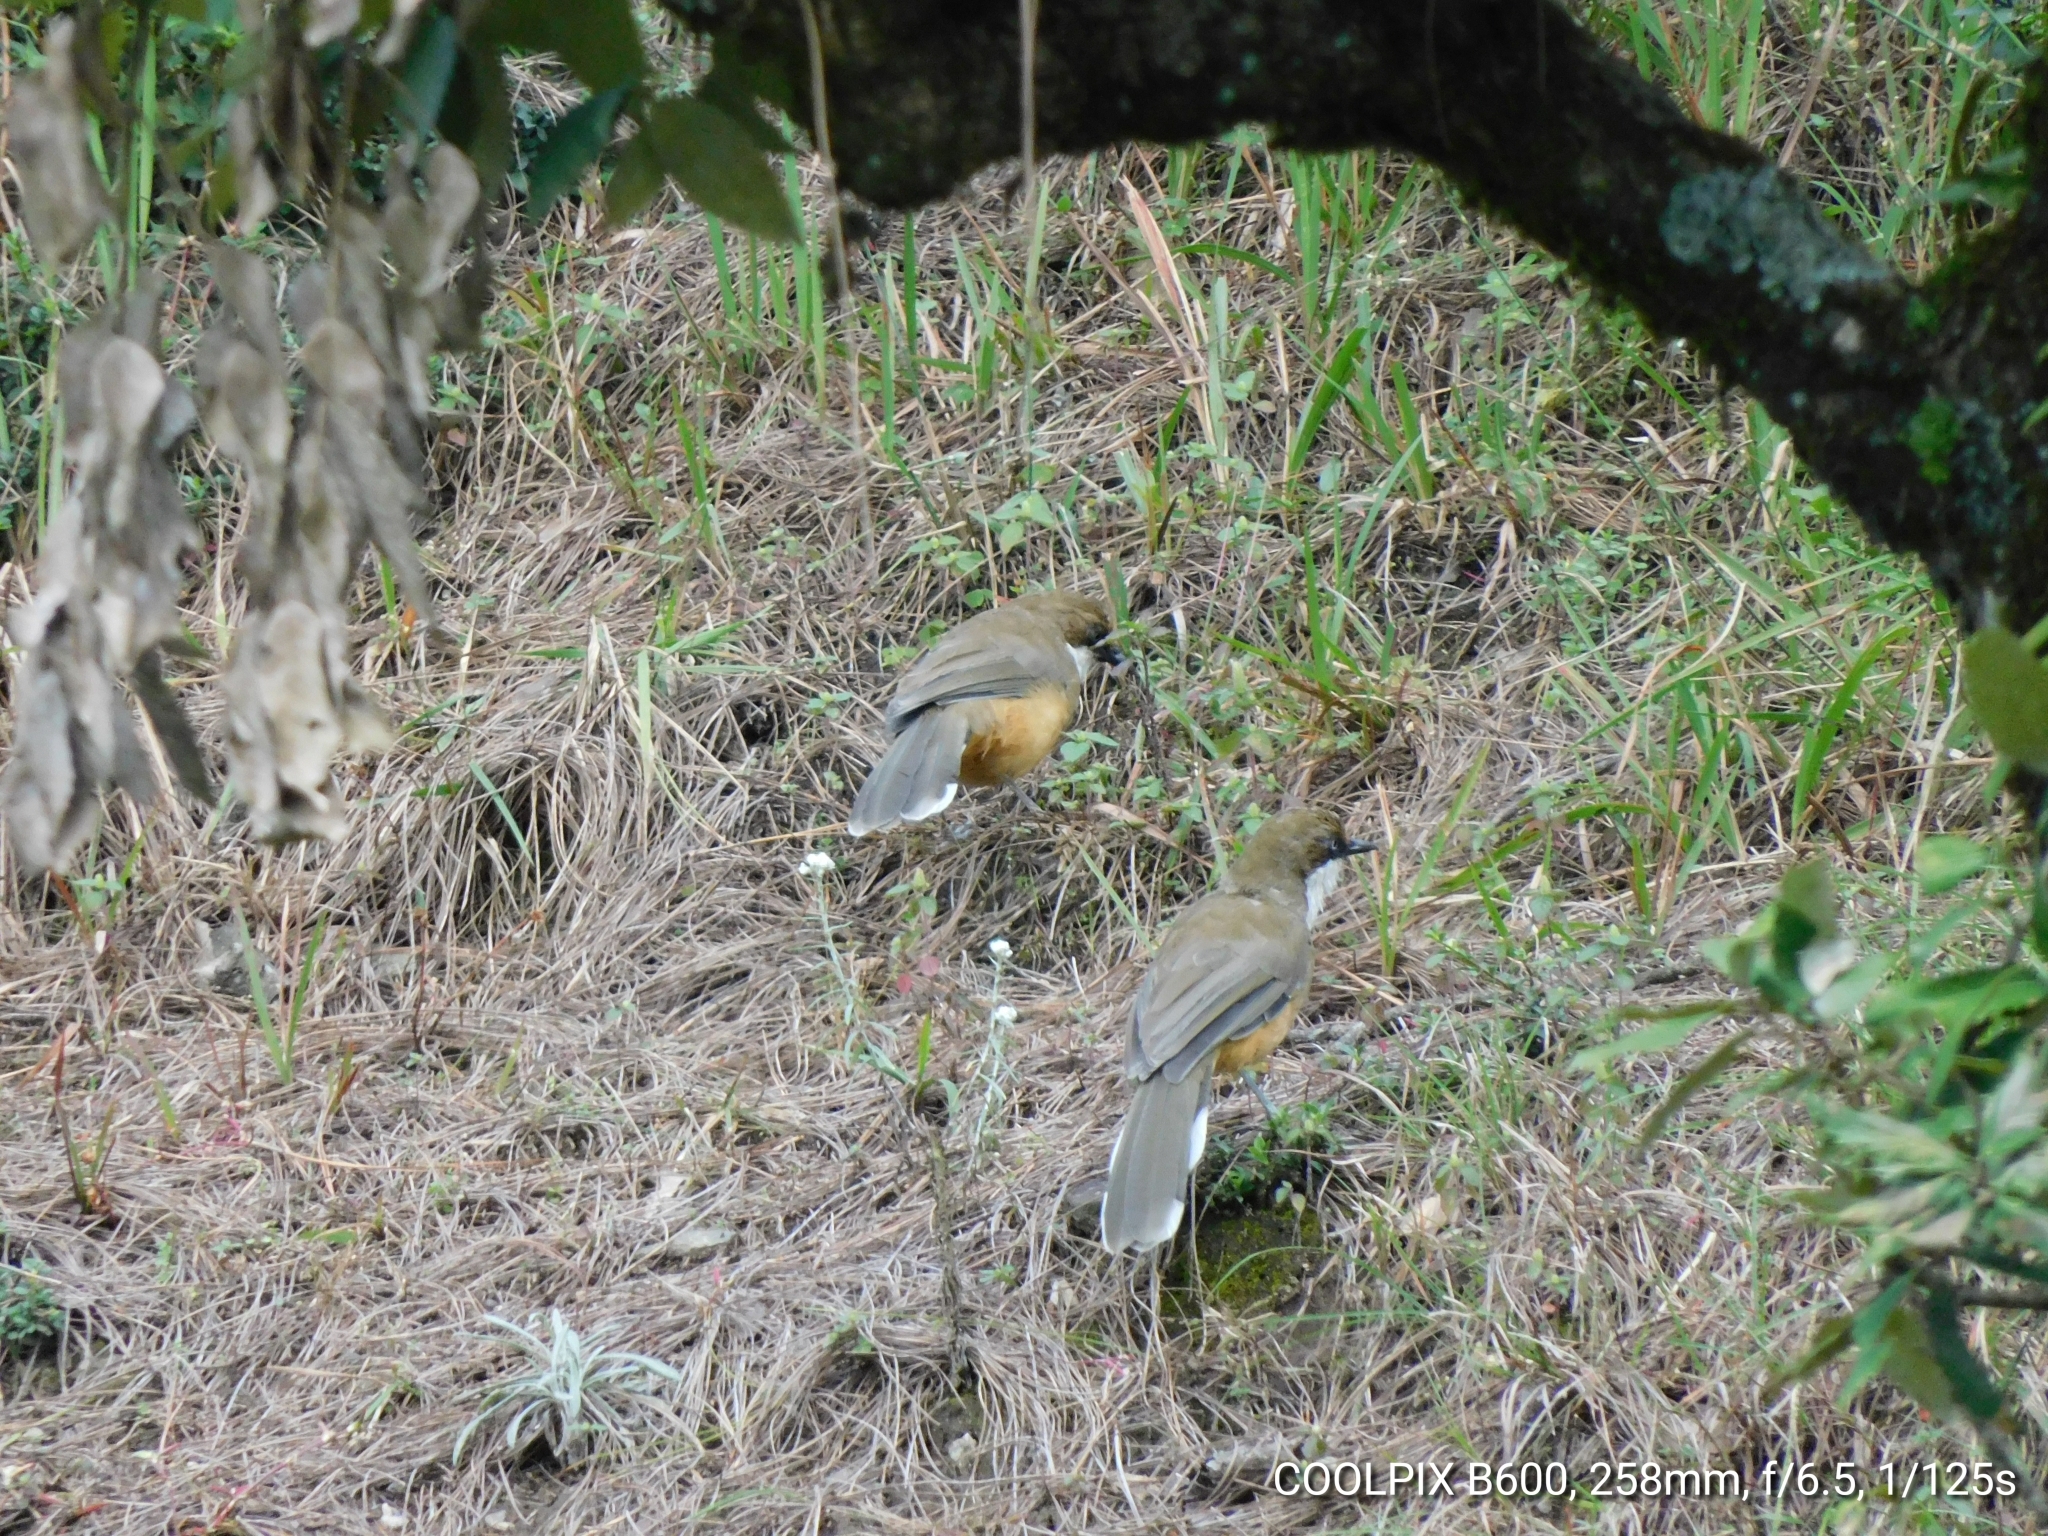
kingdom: Animalia
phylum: Chordata
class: Aves
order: Passeriformes
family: Leiothrichidae
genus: Garrulax
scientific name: Garrulax albogularis
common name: White-throated laughingthrush
